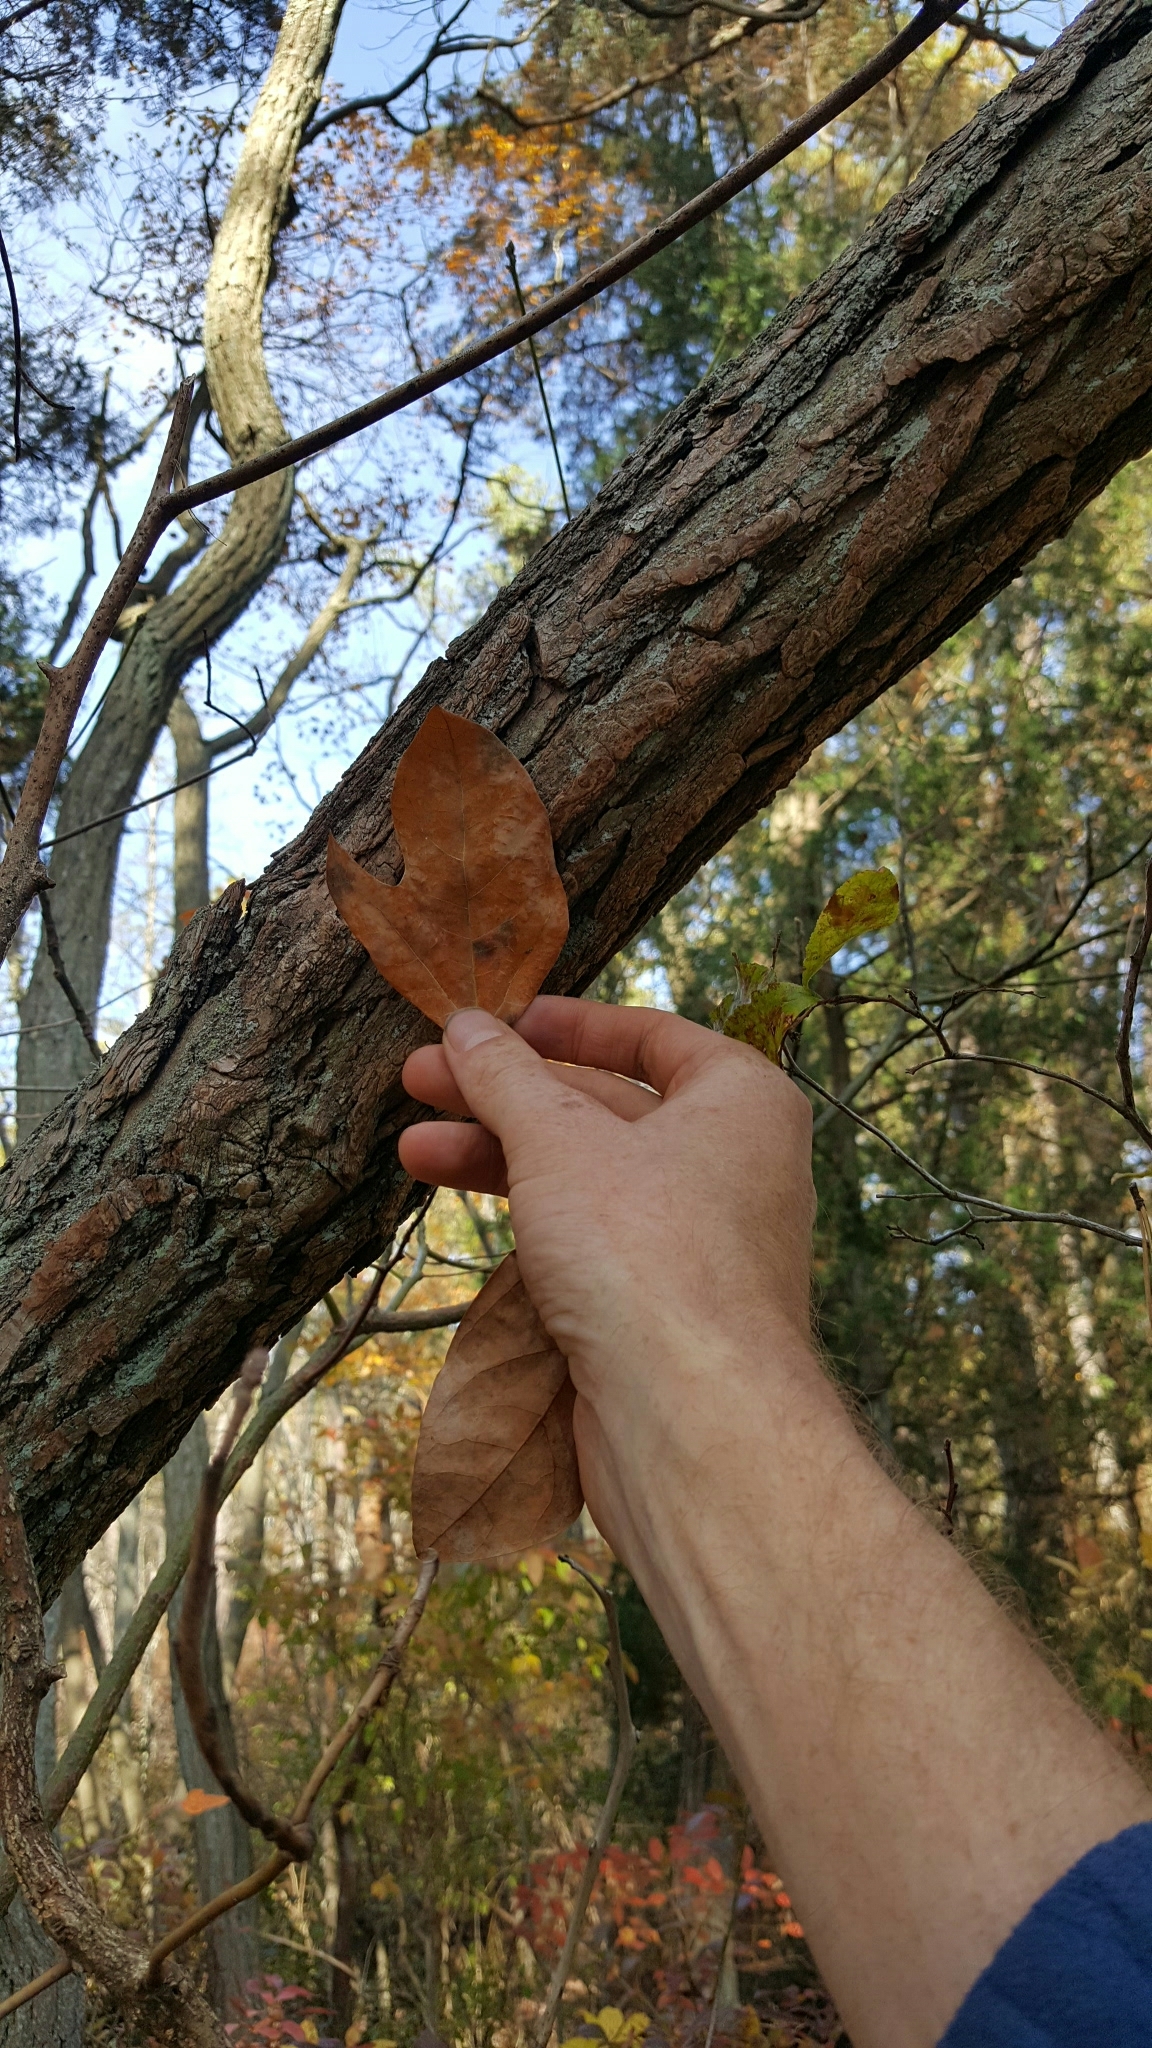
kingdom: Plantae
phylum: Tracheophyta
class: Magnoliopsida
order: Laurales
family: Lauraceae
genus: Sassafras
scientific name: Sassafras albidum
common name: Sassafras
